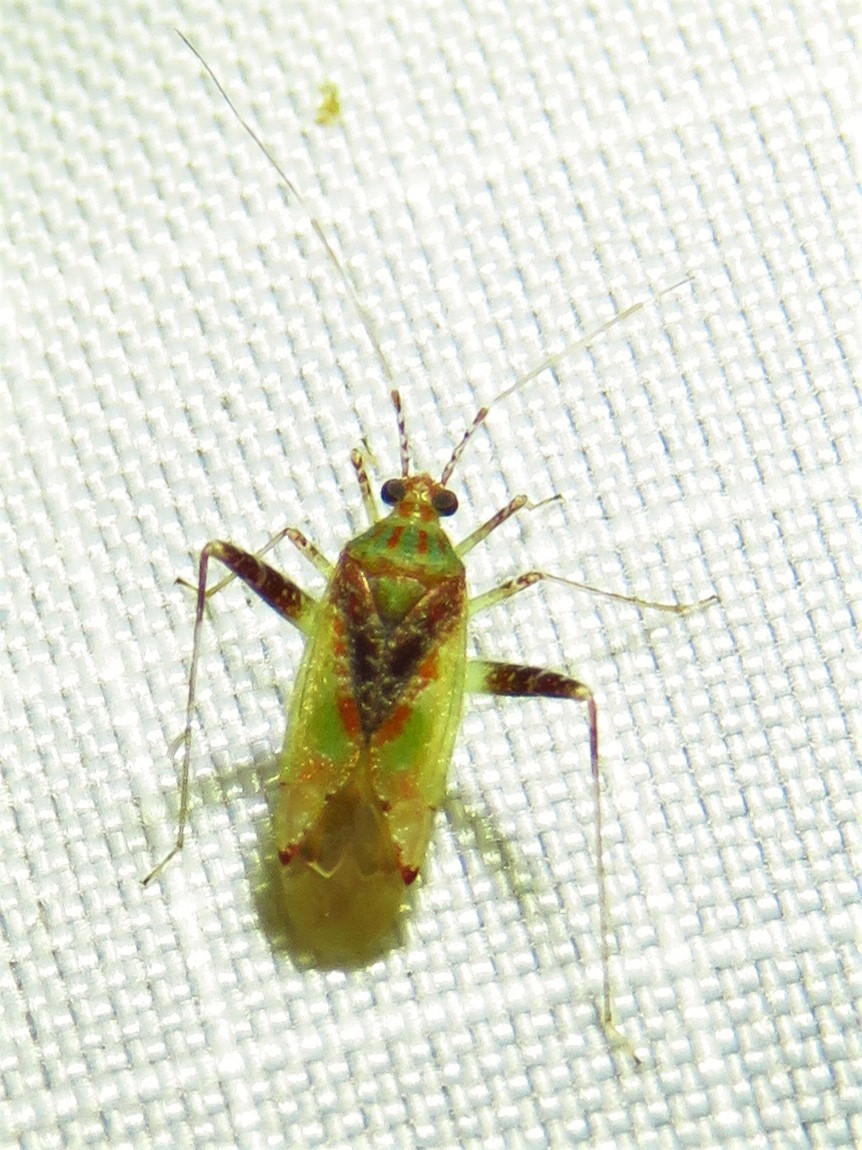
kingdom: Animalia
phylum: Arthropoda
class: Insecta
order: Hemiptera
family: Miridae
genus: Phytocoris
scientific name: Phytocoris tibialis
